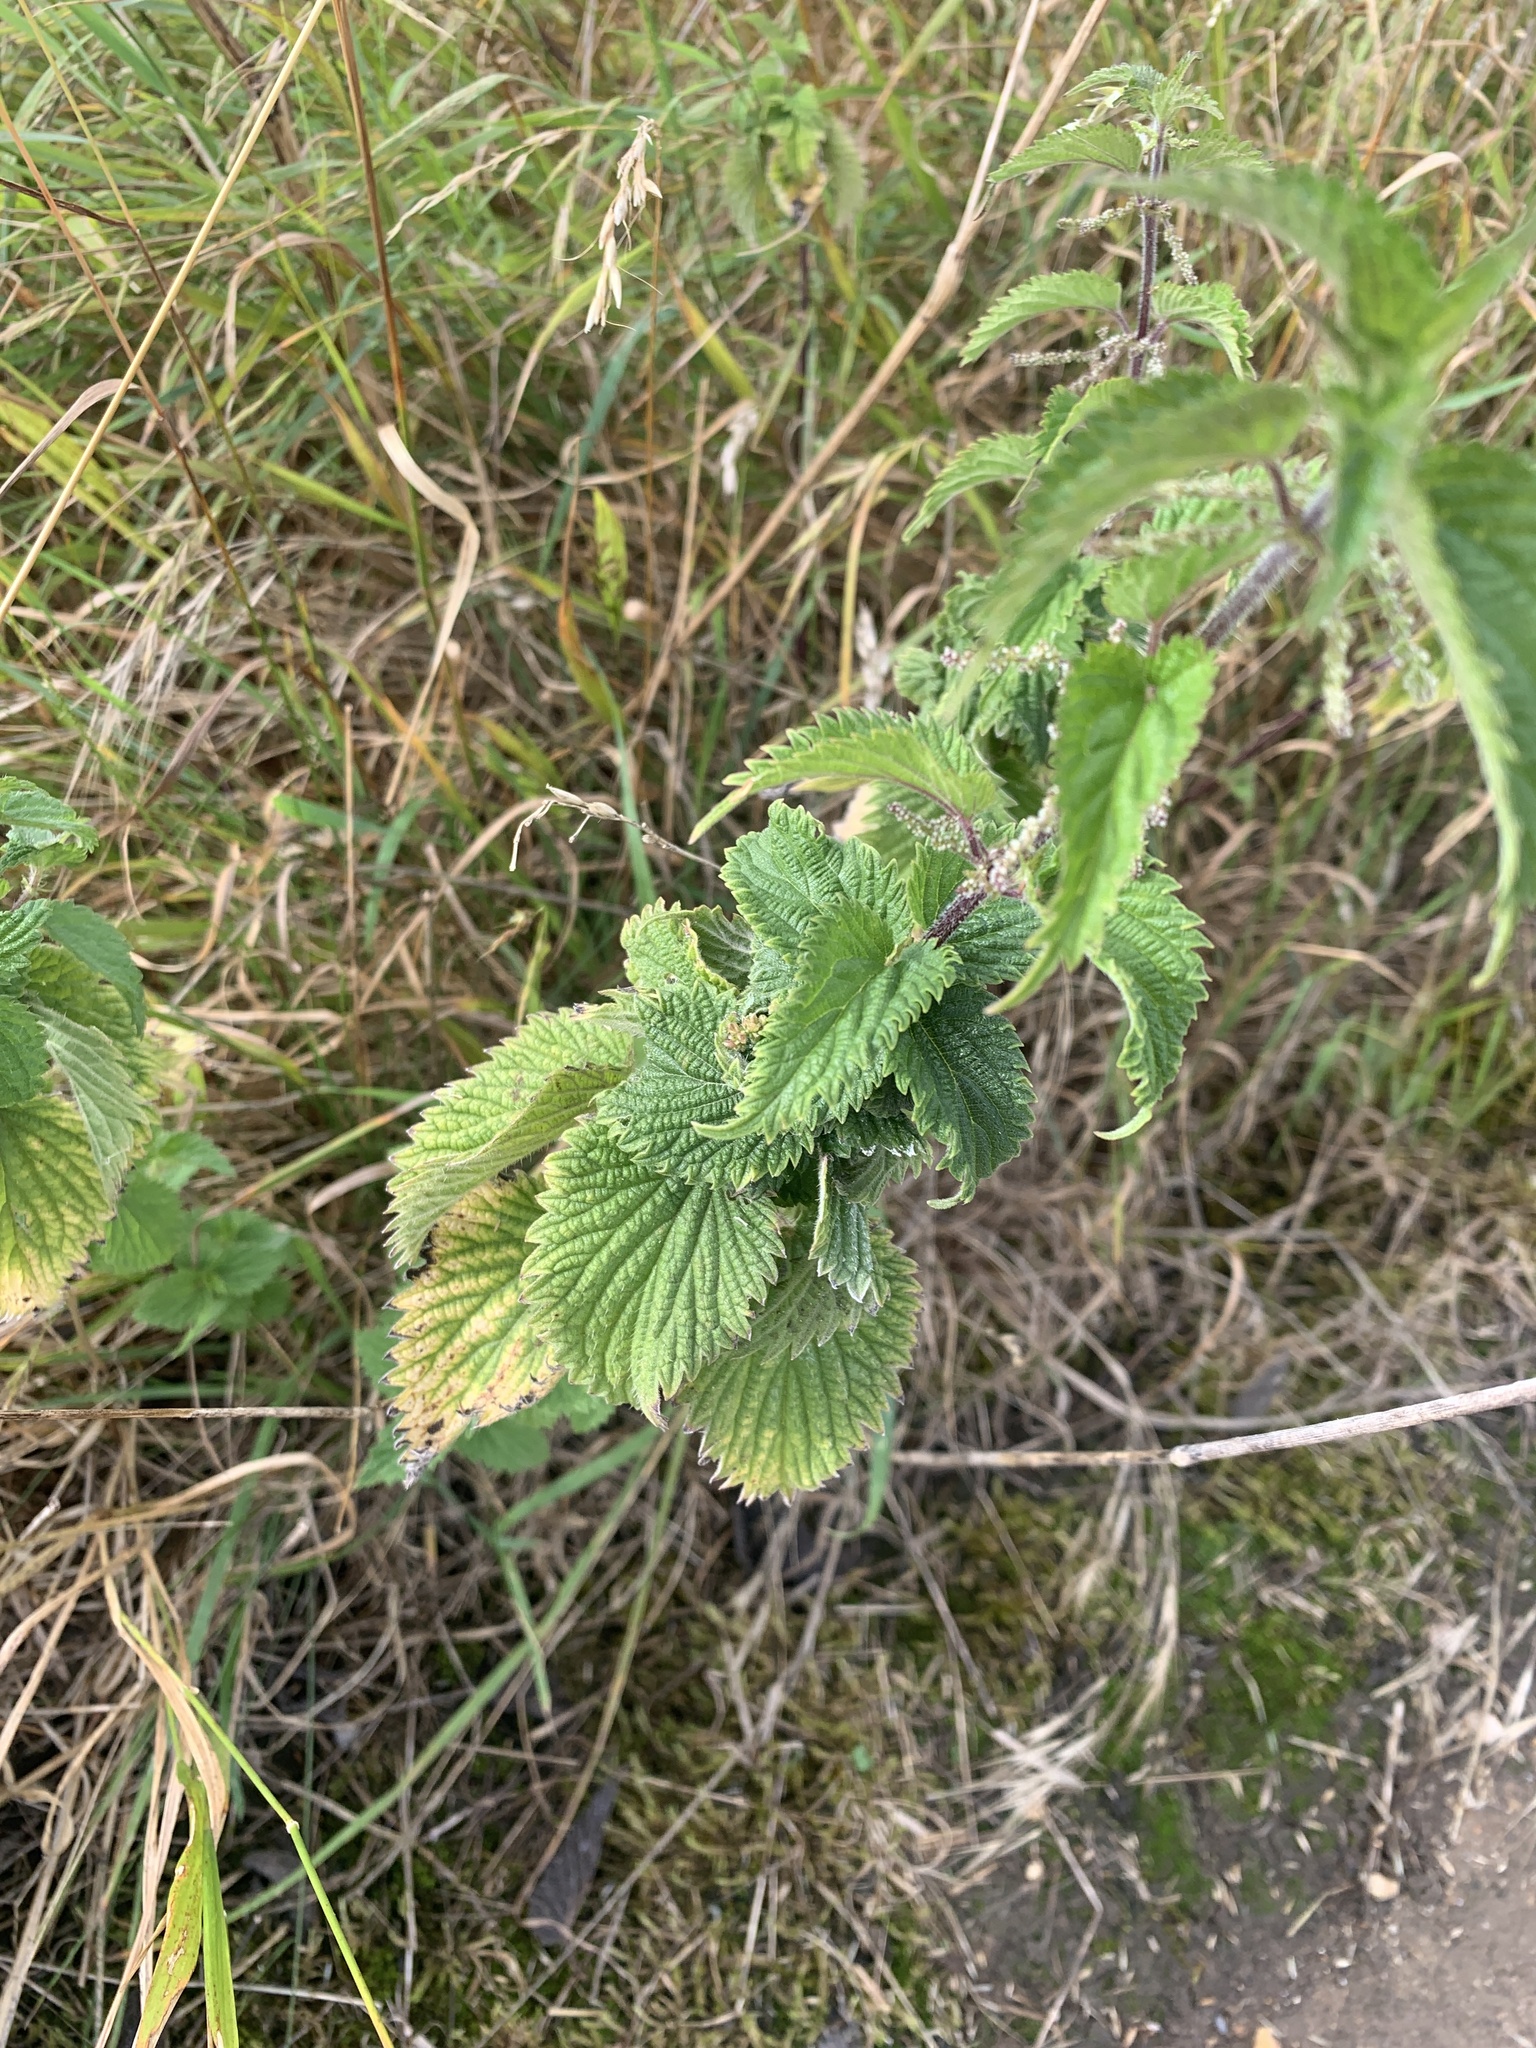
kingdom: Plantae
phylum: Tracheophyta
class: Magnoliopsida
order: Rosales
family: Urticaceae
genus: Urtica
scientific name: Urtica dioica
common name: Common nettle
